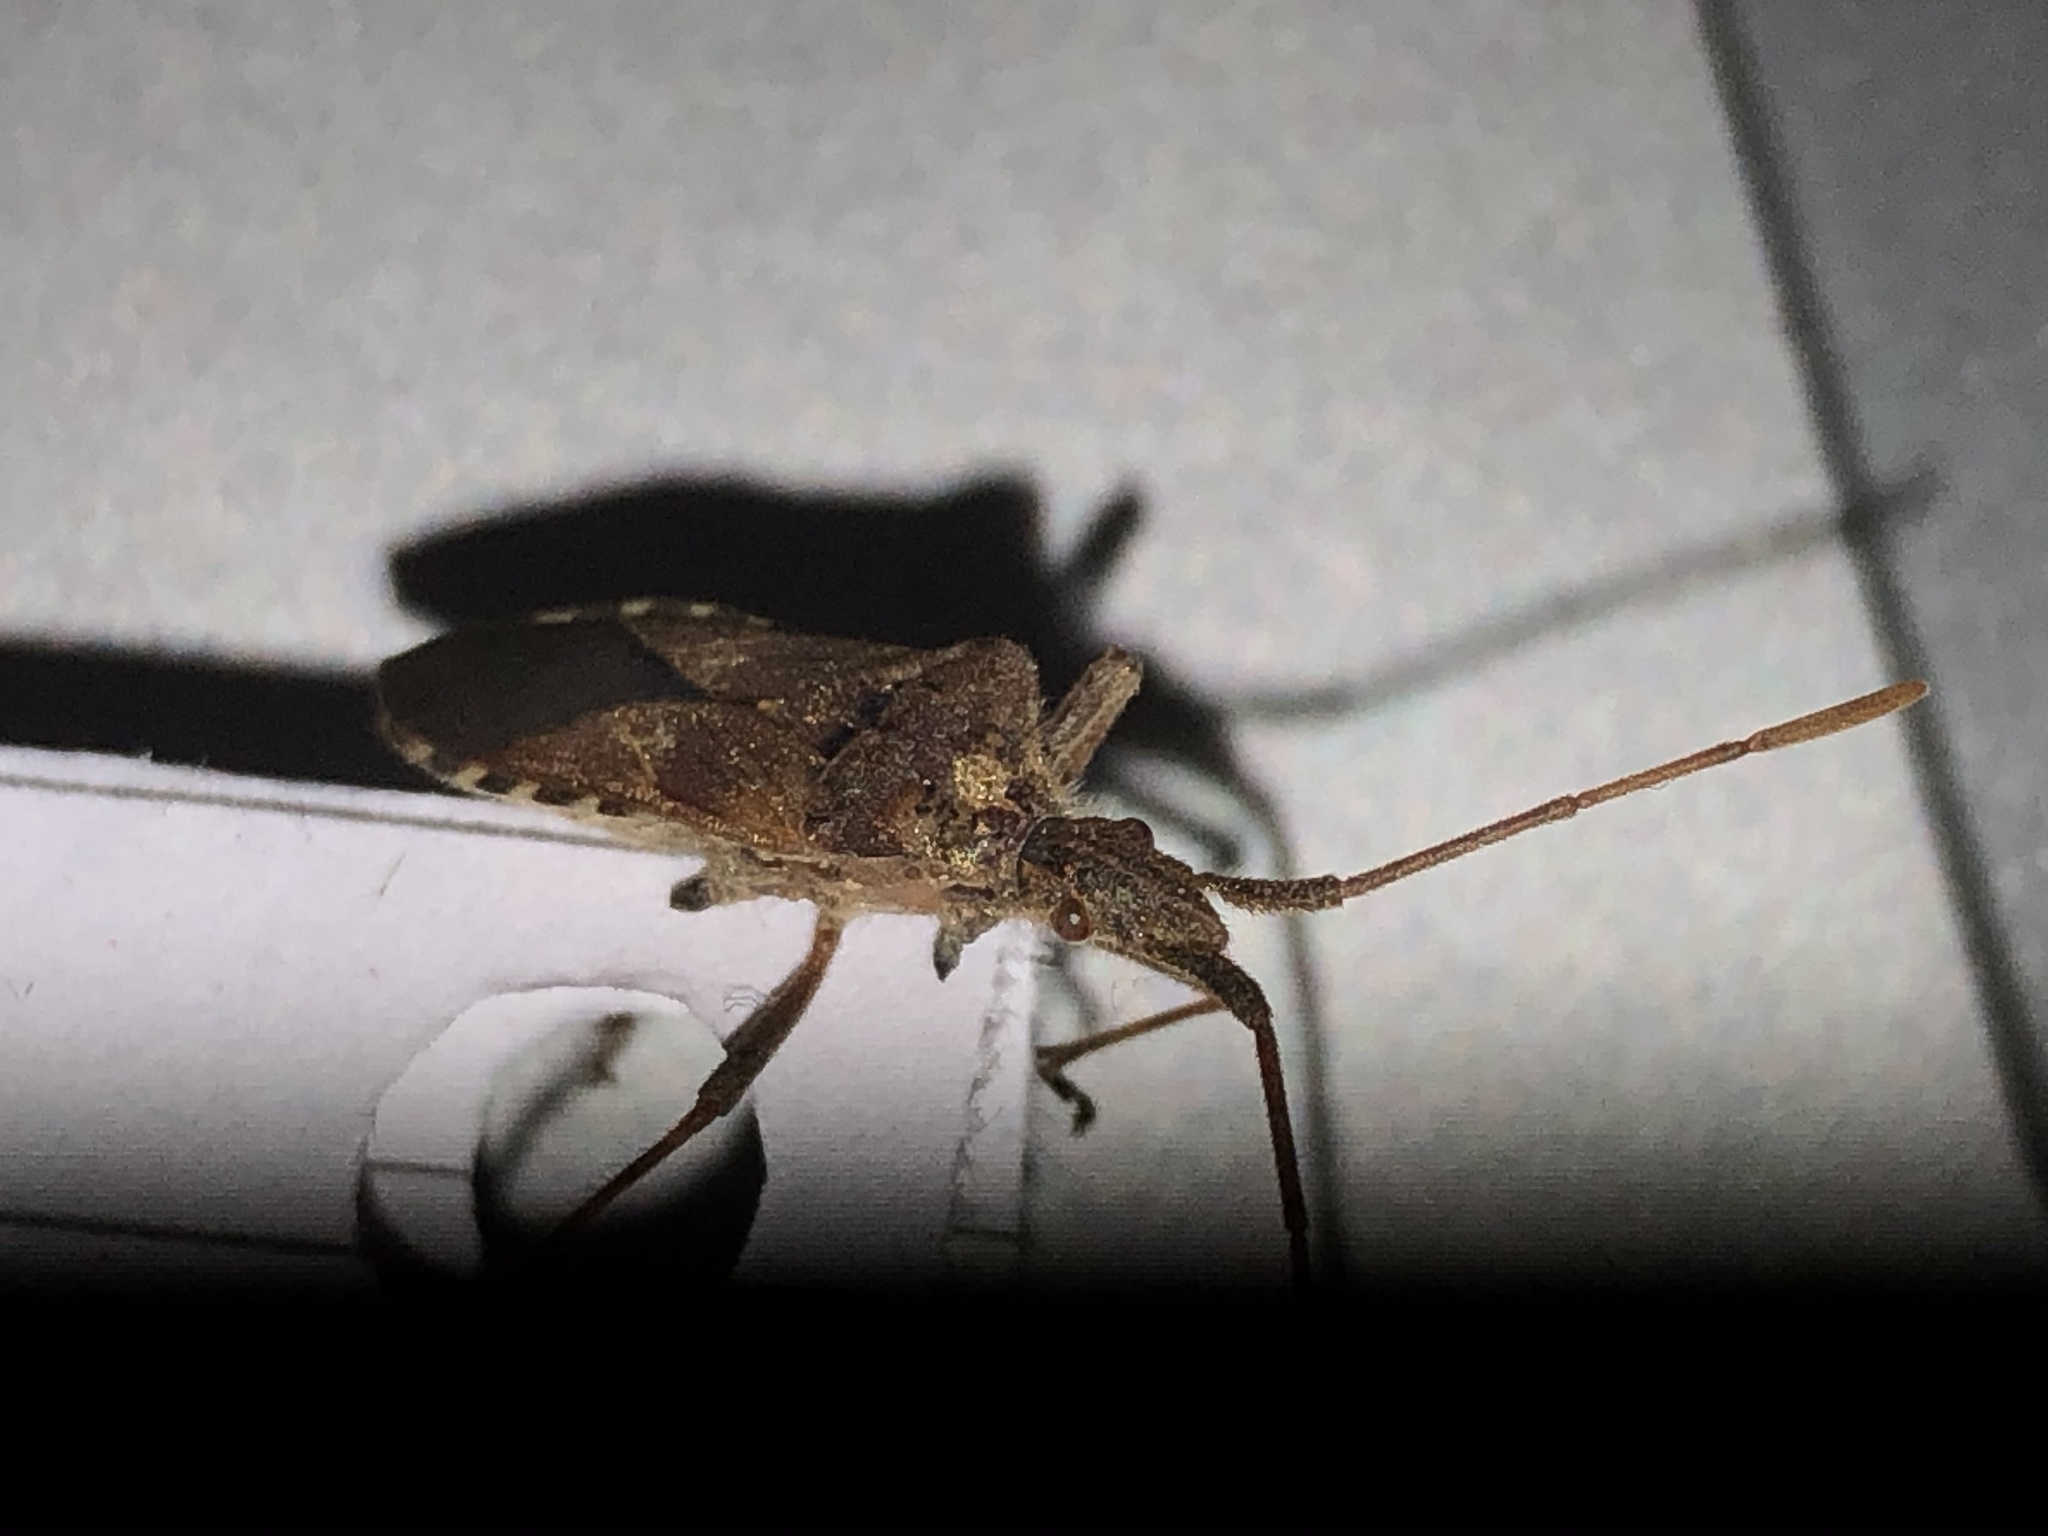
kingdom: Animalia
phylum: Arthropoda
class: Insecta
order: Hemiptera
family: Coreidae
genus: Leptoglossus
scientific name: Leptoglossus occidentalis
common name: Western conifer-seed bug
